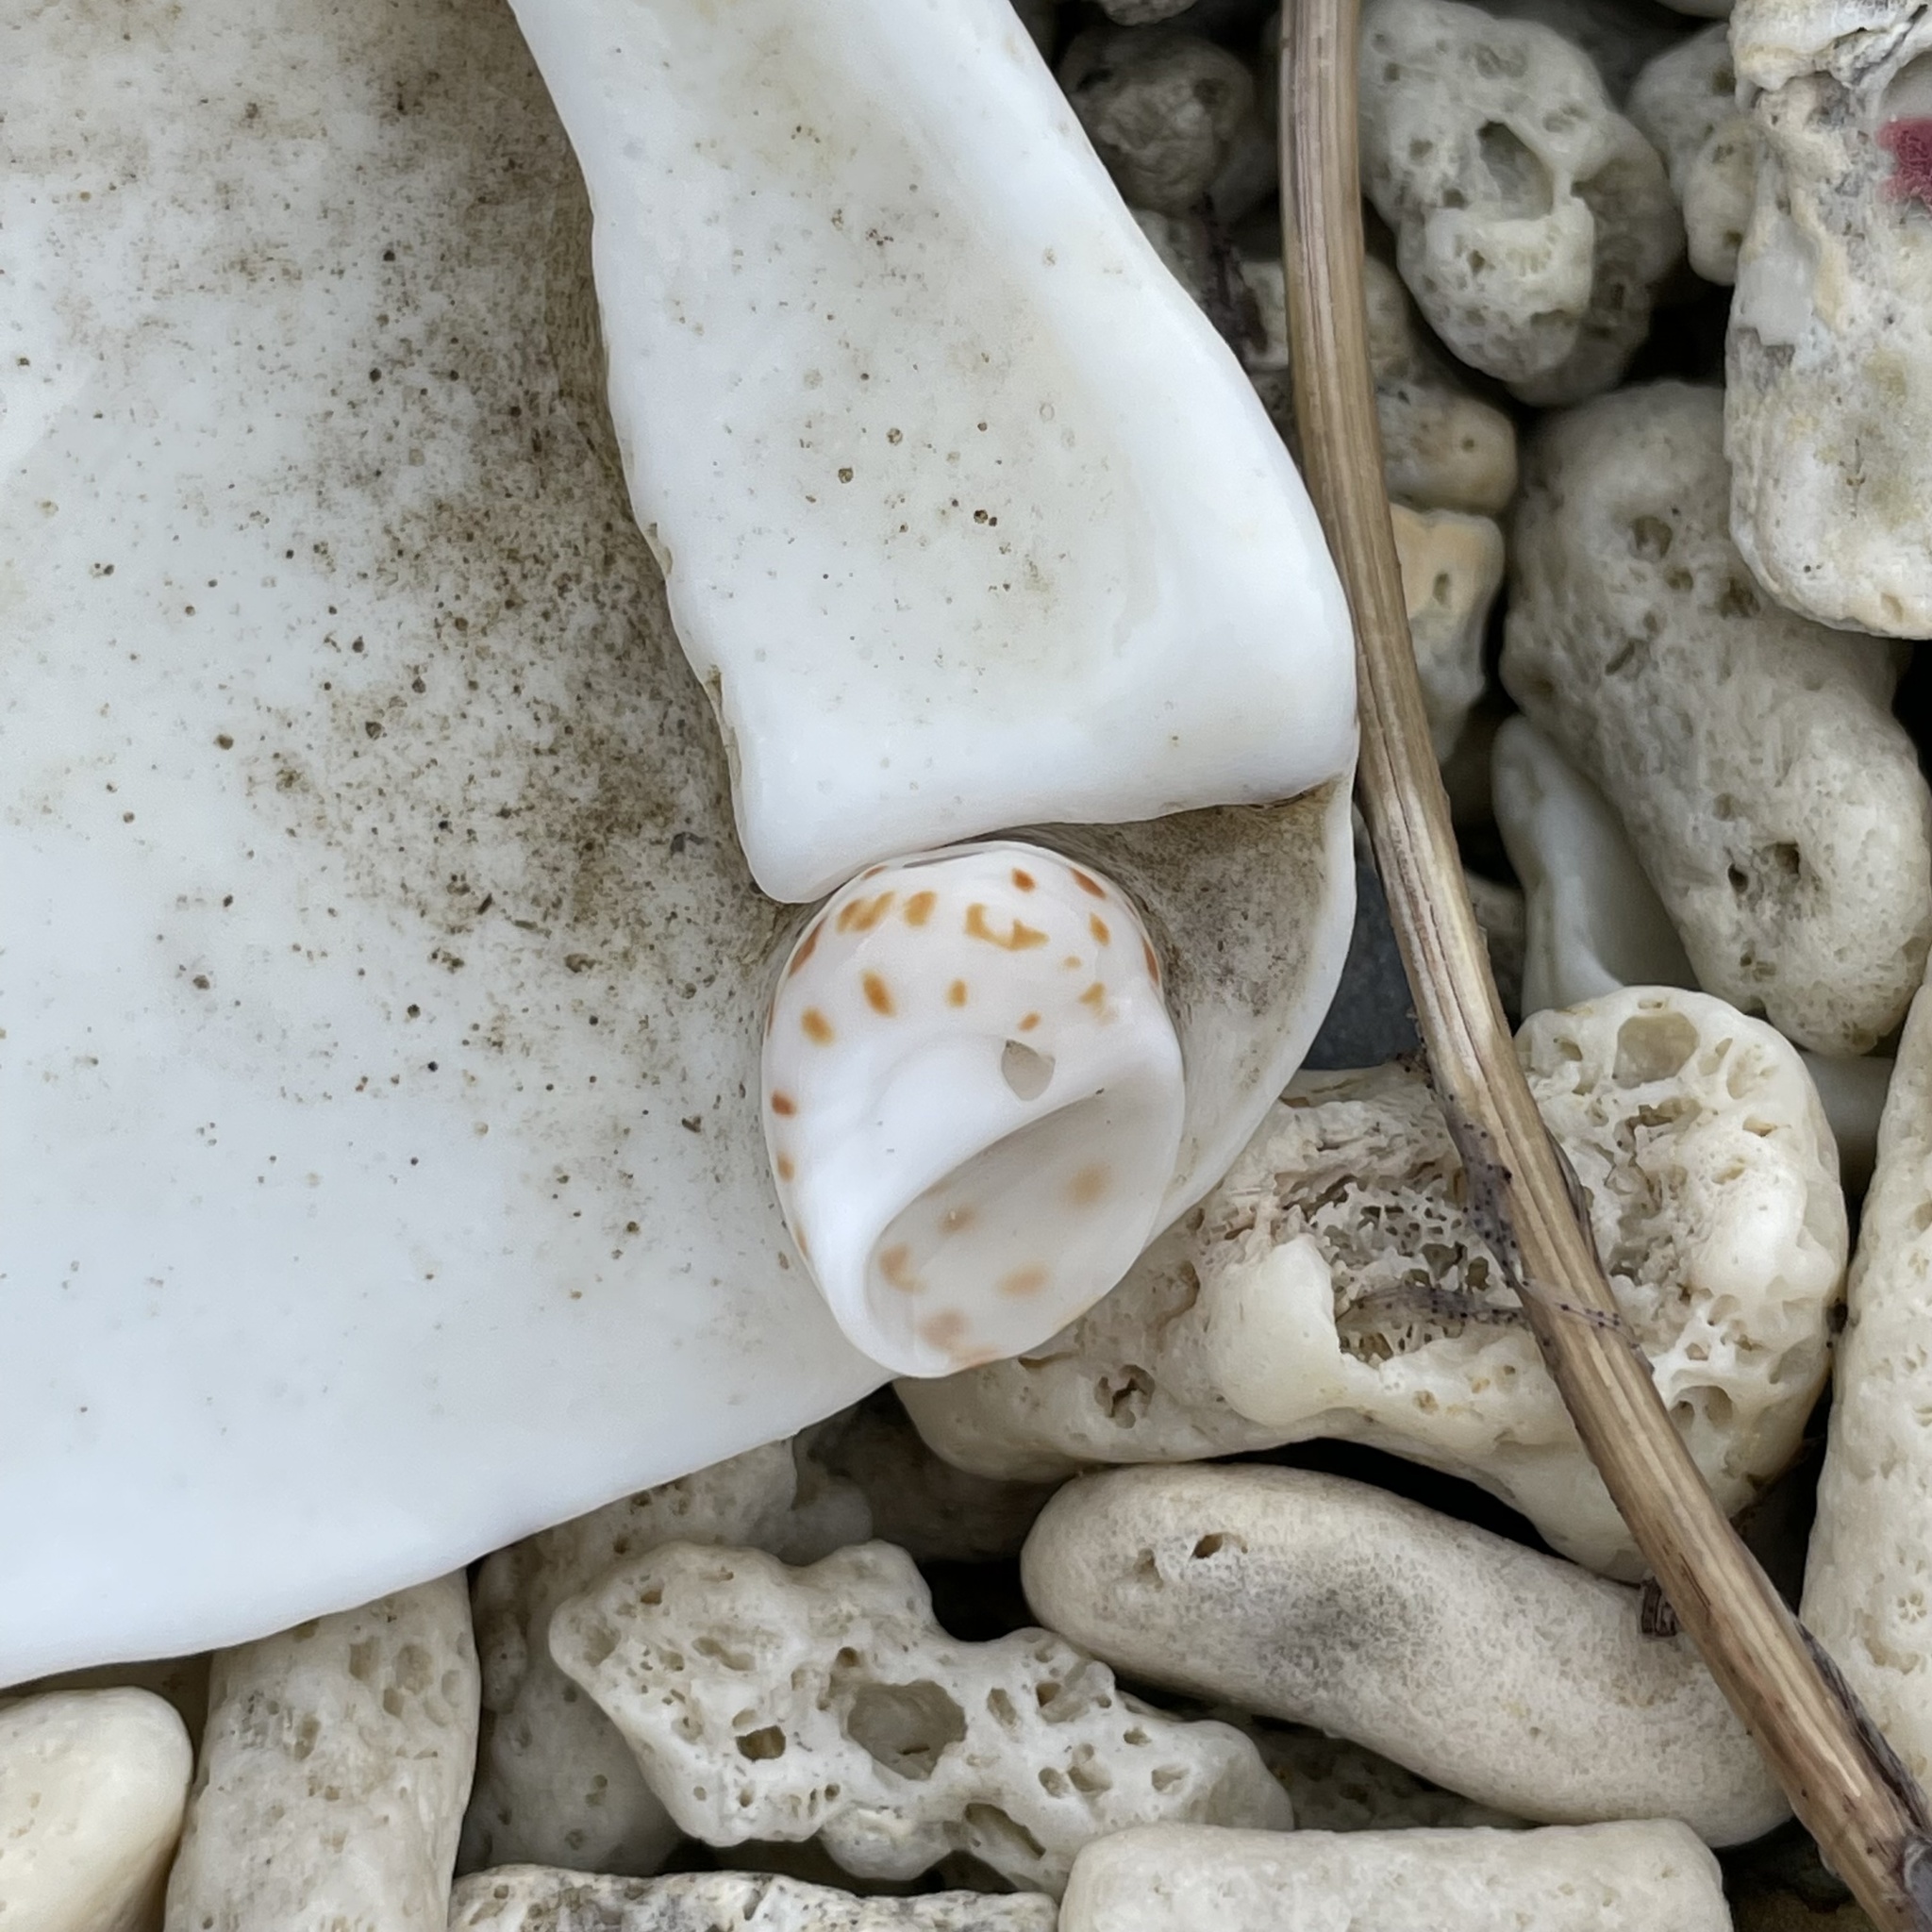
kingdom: Animalia
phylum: Mollusca
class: Gastropoda
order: Littorinimorpha
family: Naticidae
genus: Naticarius
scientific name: Naticarius onca
